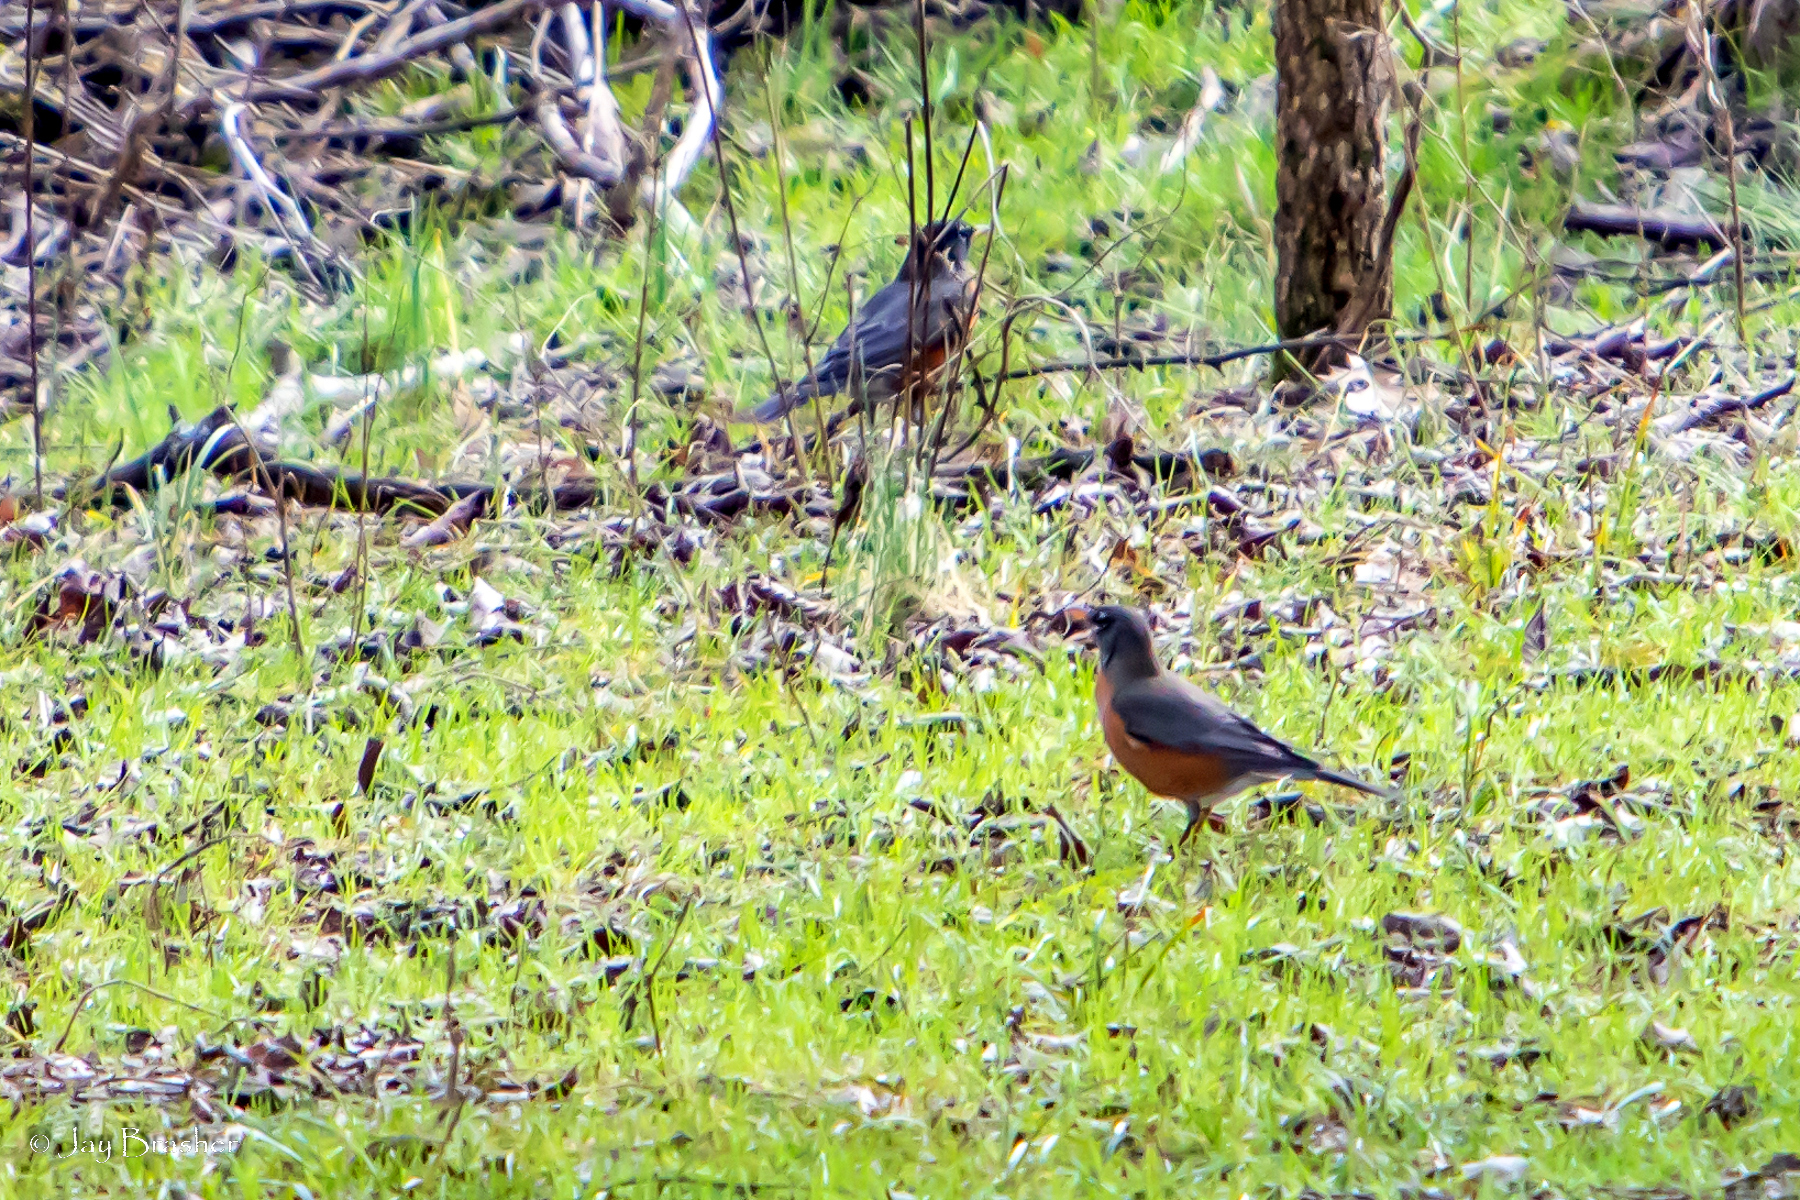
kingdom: Animalia
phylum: Chordata
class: Aves
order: Passeriformes
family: Turdidae
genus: Turdus
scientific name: Turdus migratorius
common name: American robin
